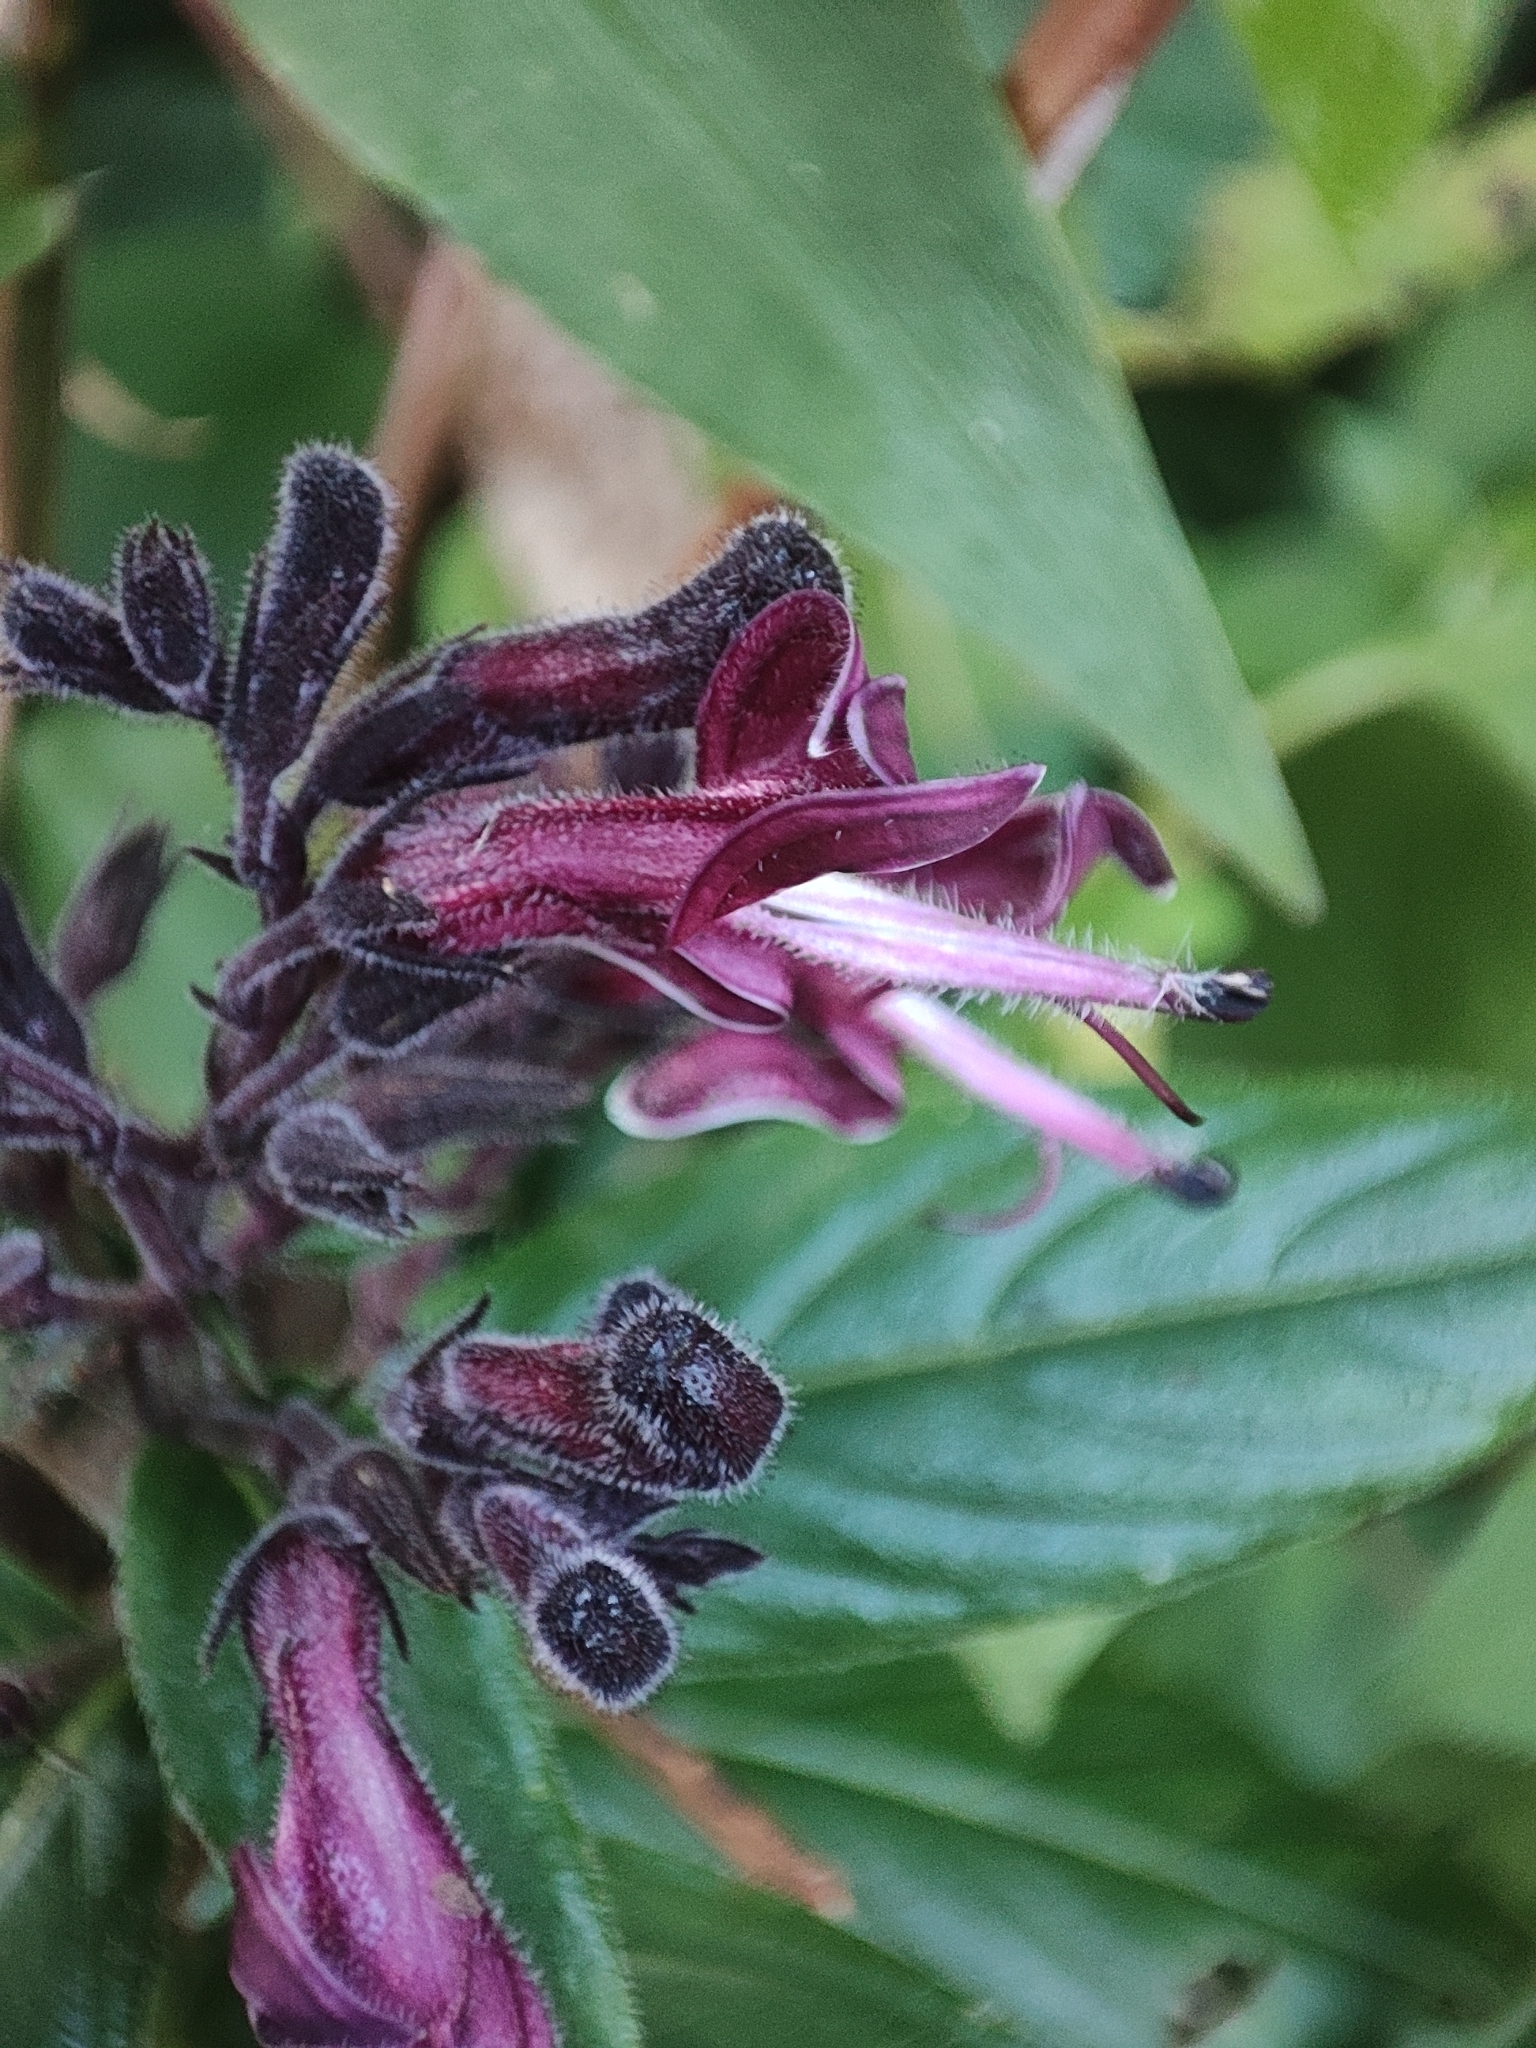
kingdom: Plantae
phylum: Tracheophyta
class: Magnoliopsida
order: Lamiales
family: Acanthaceae
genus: Andrographis
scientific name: Andrographis neesiana
